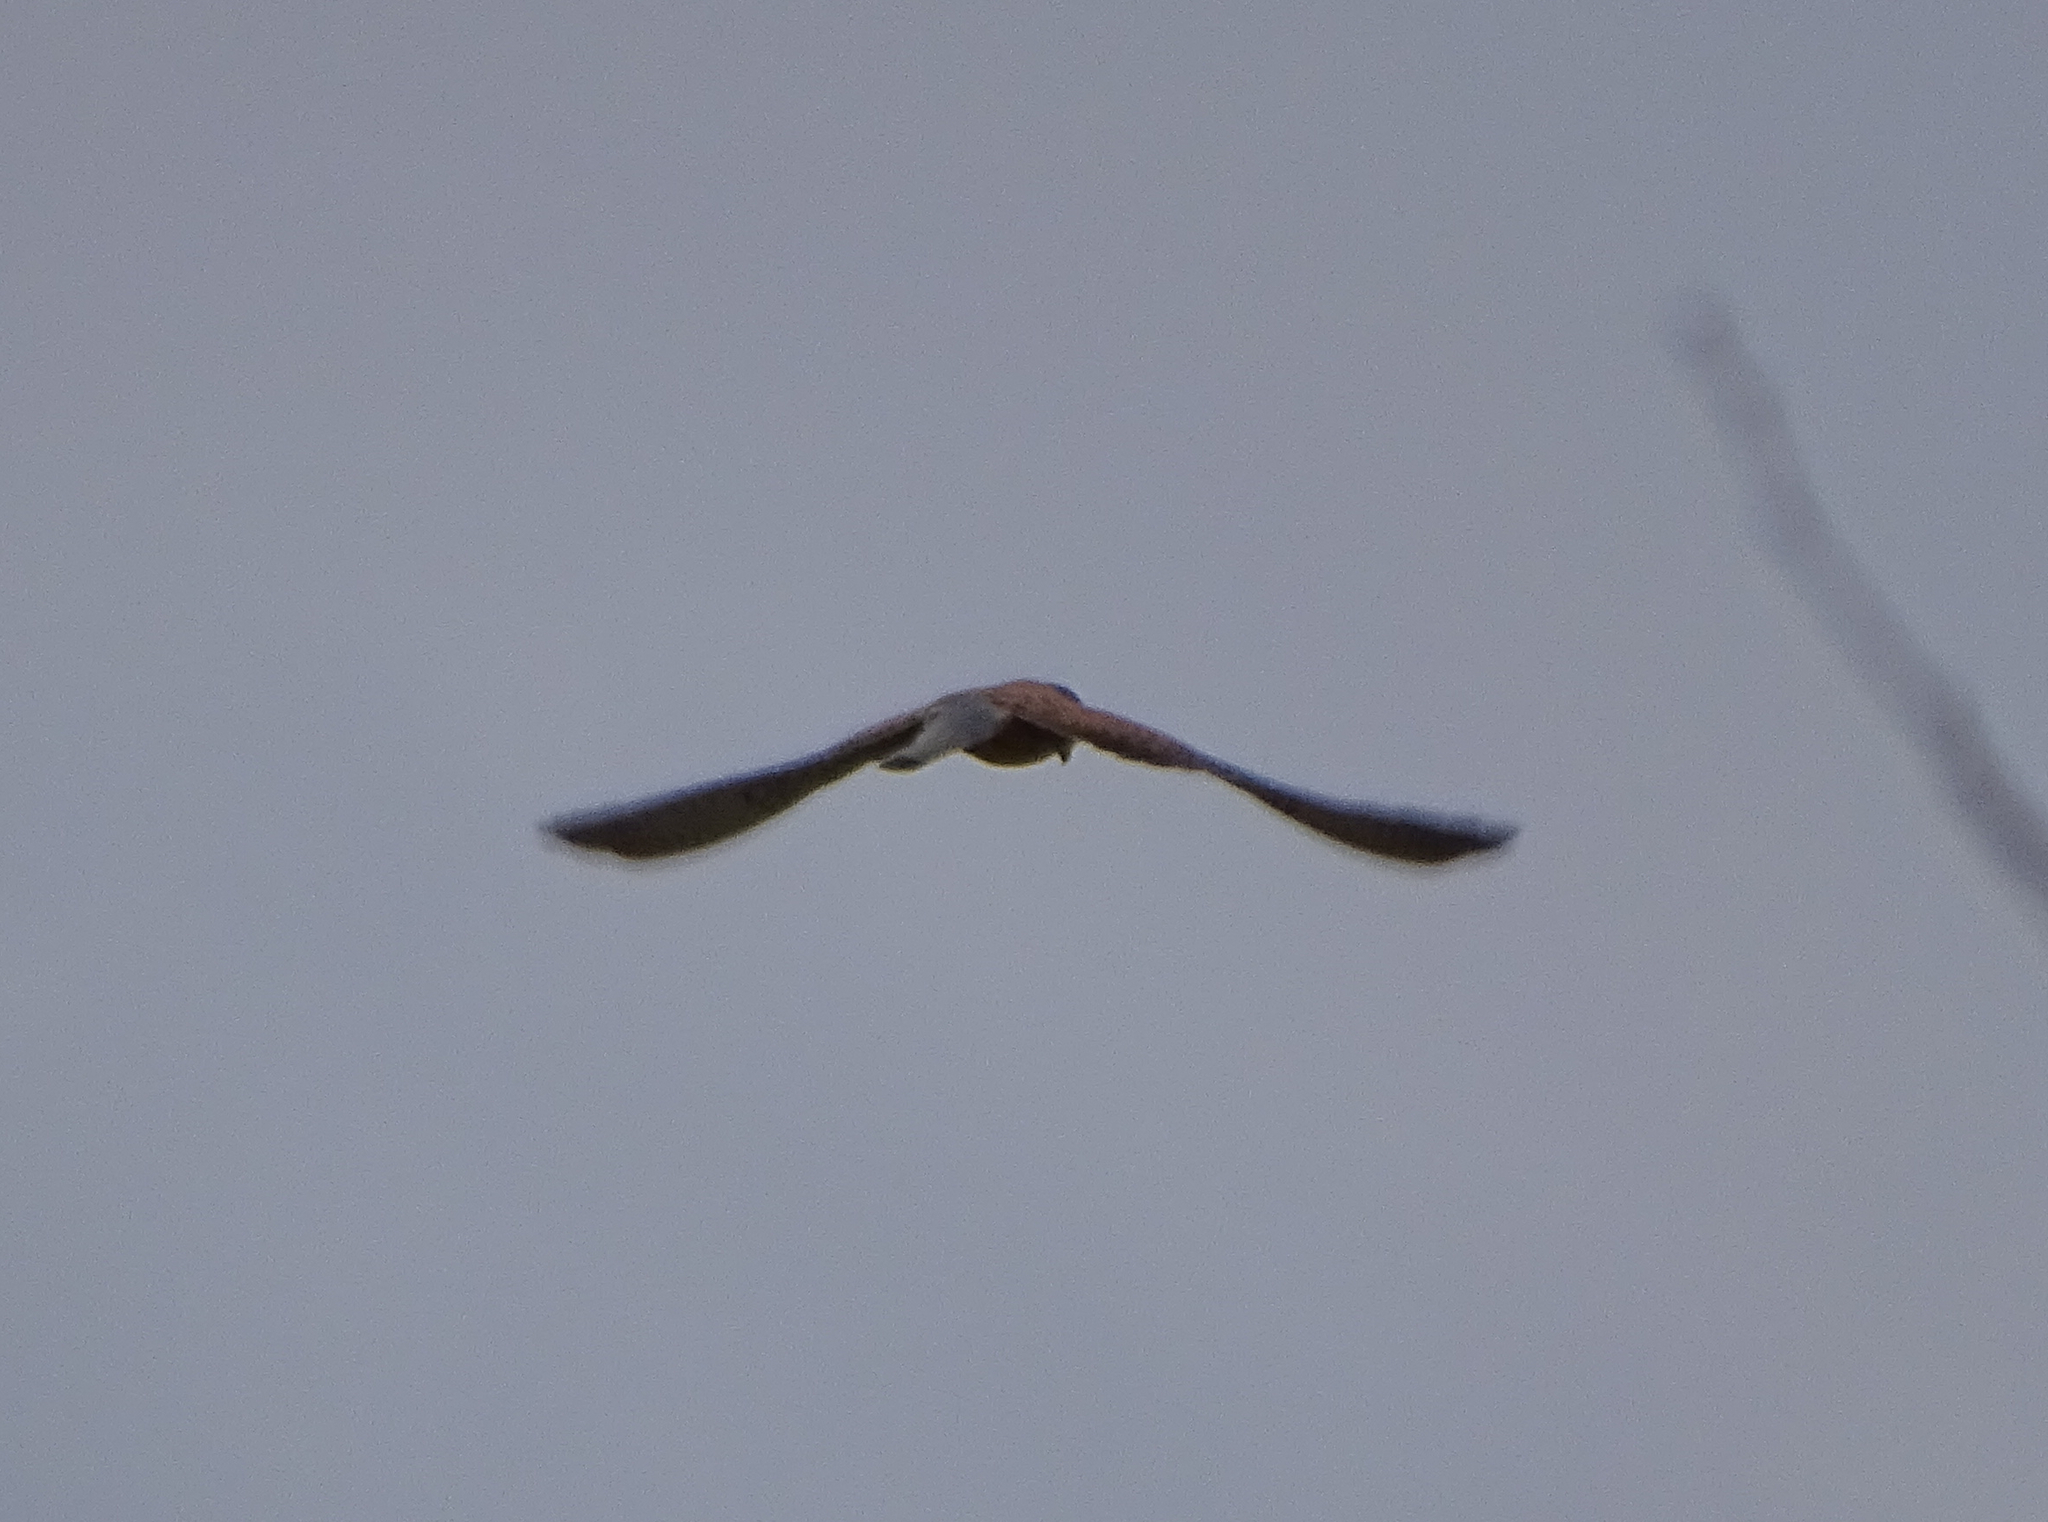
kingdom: Animalia
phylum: Chordata
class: Aves
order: Falconiformes
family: Falconidae
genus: Falco
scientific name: Falco tinnunculus
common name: Common kestrel
